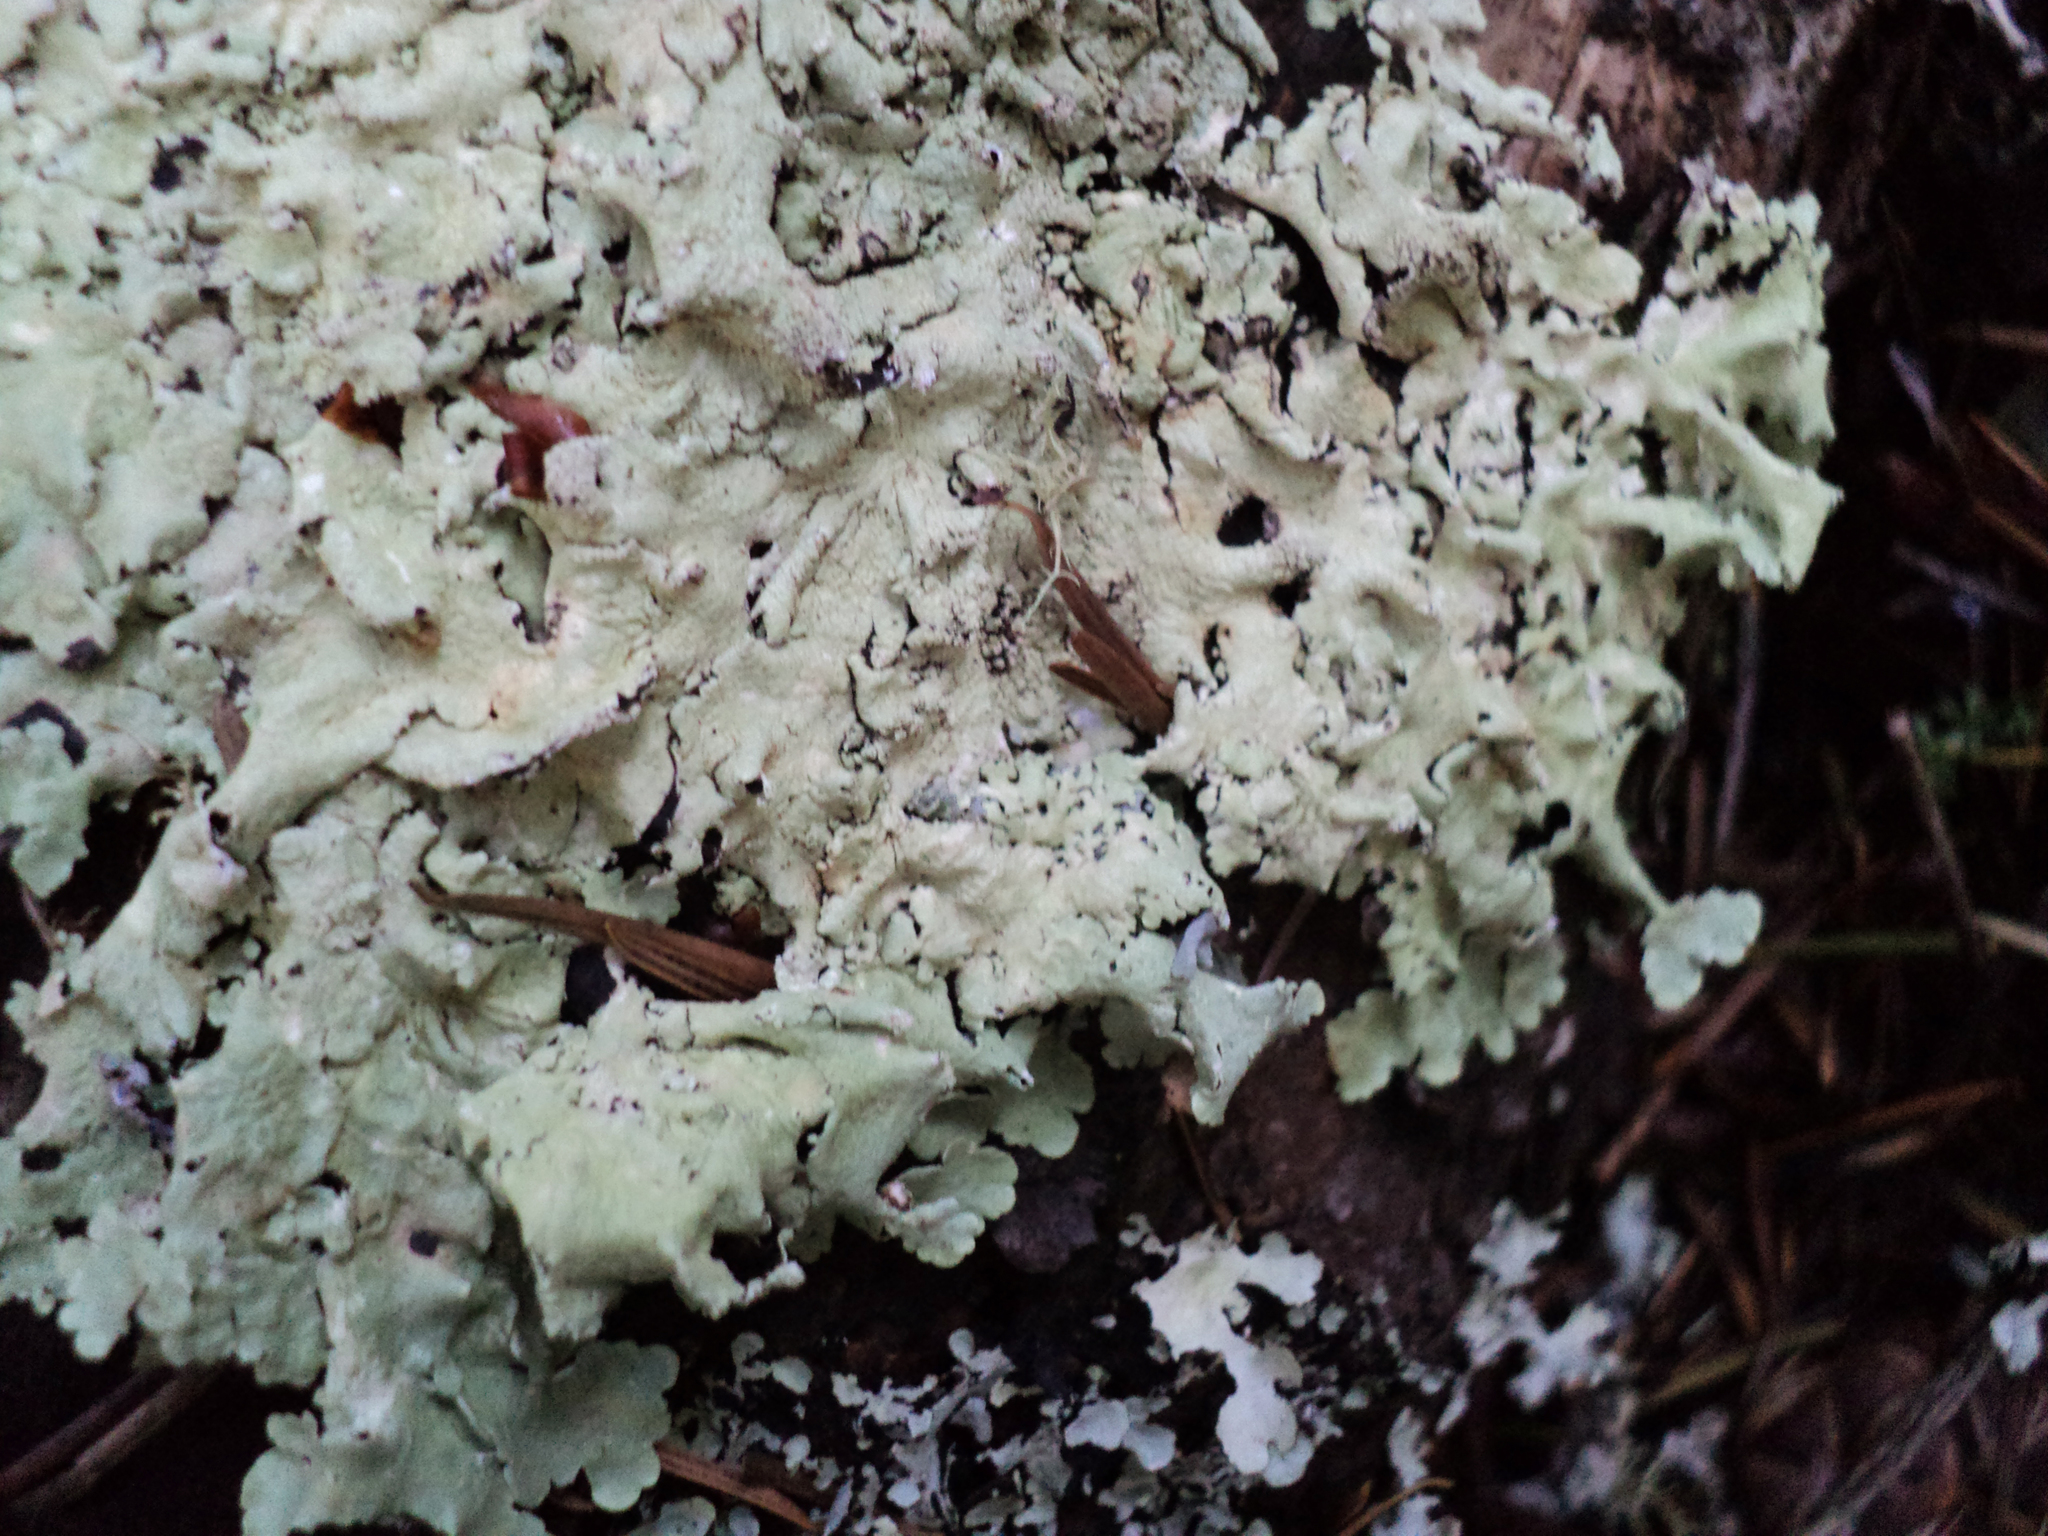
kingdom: Fungi
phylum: Ascomycota
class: Lecanoromycetes
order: Lecanorales
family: Parmeliaceae
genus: Flavoparmelia
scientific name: Flavoparmelia caperata
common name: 40-mile per hour lichen
